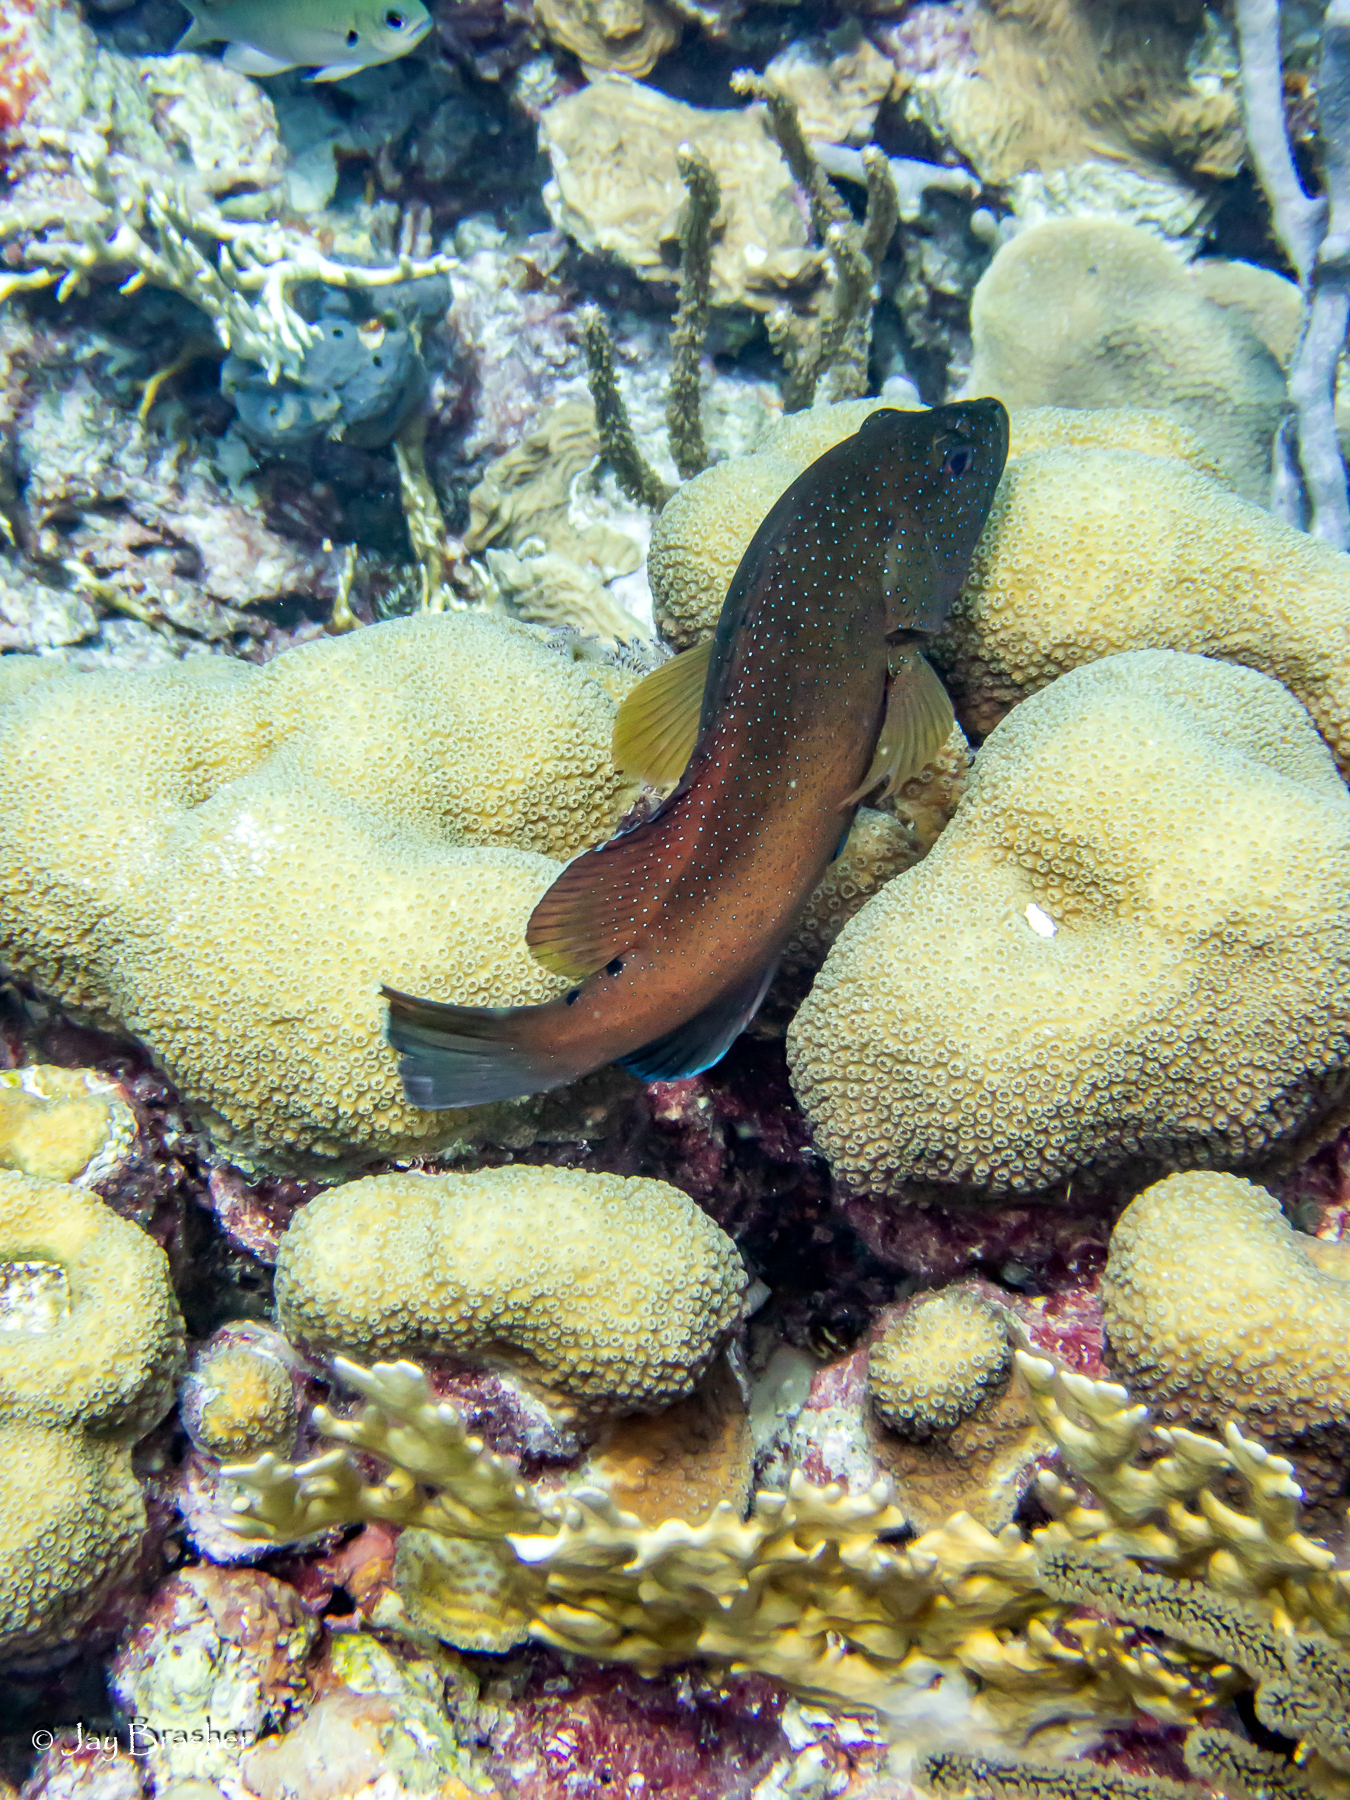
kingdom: Animalia
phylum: Chordata
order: Perciformes
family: Serranidae
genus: Cephalopholis
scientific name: Cephalopholis fulva
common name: Butterfish
